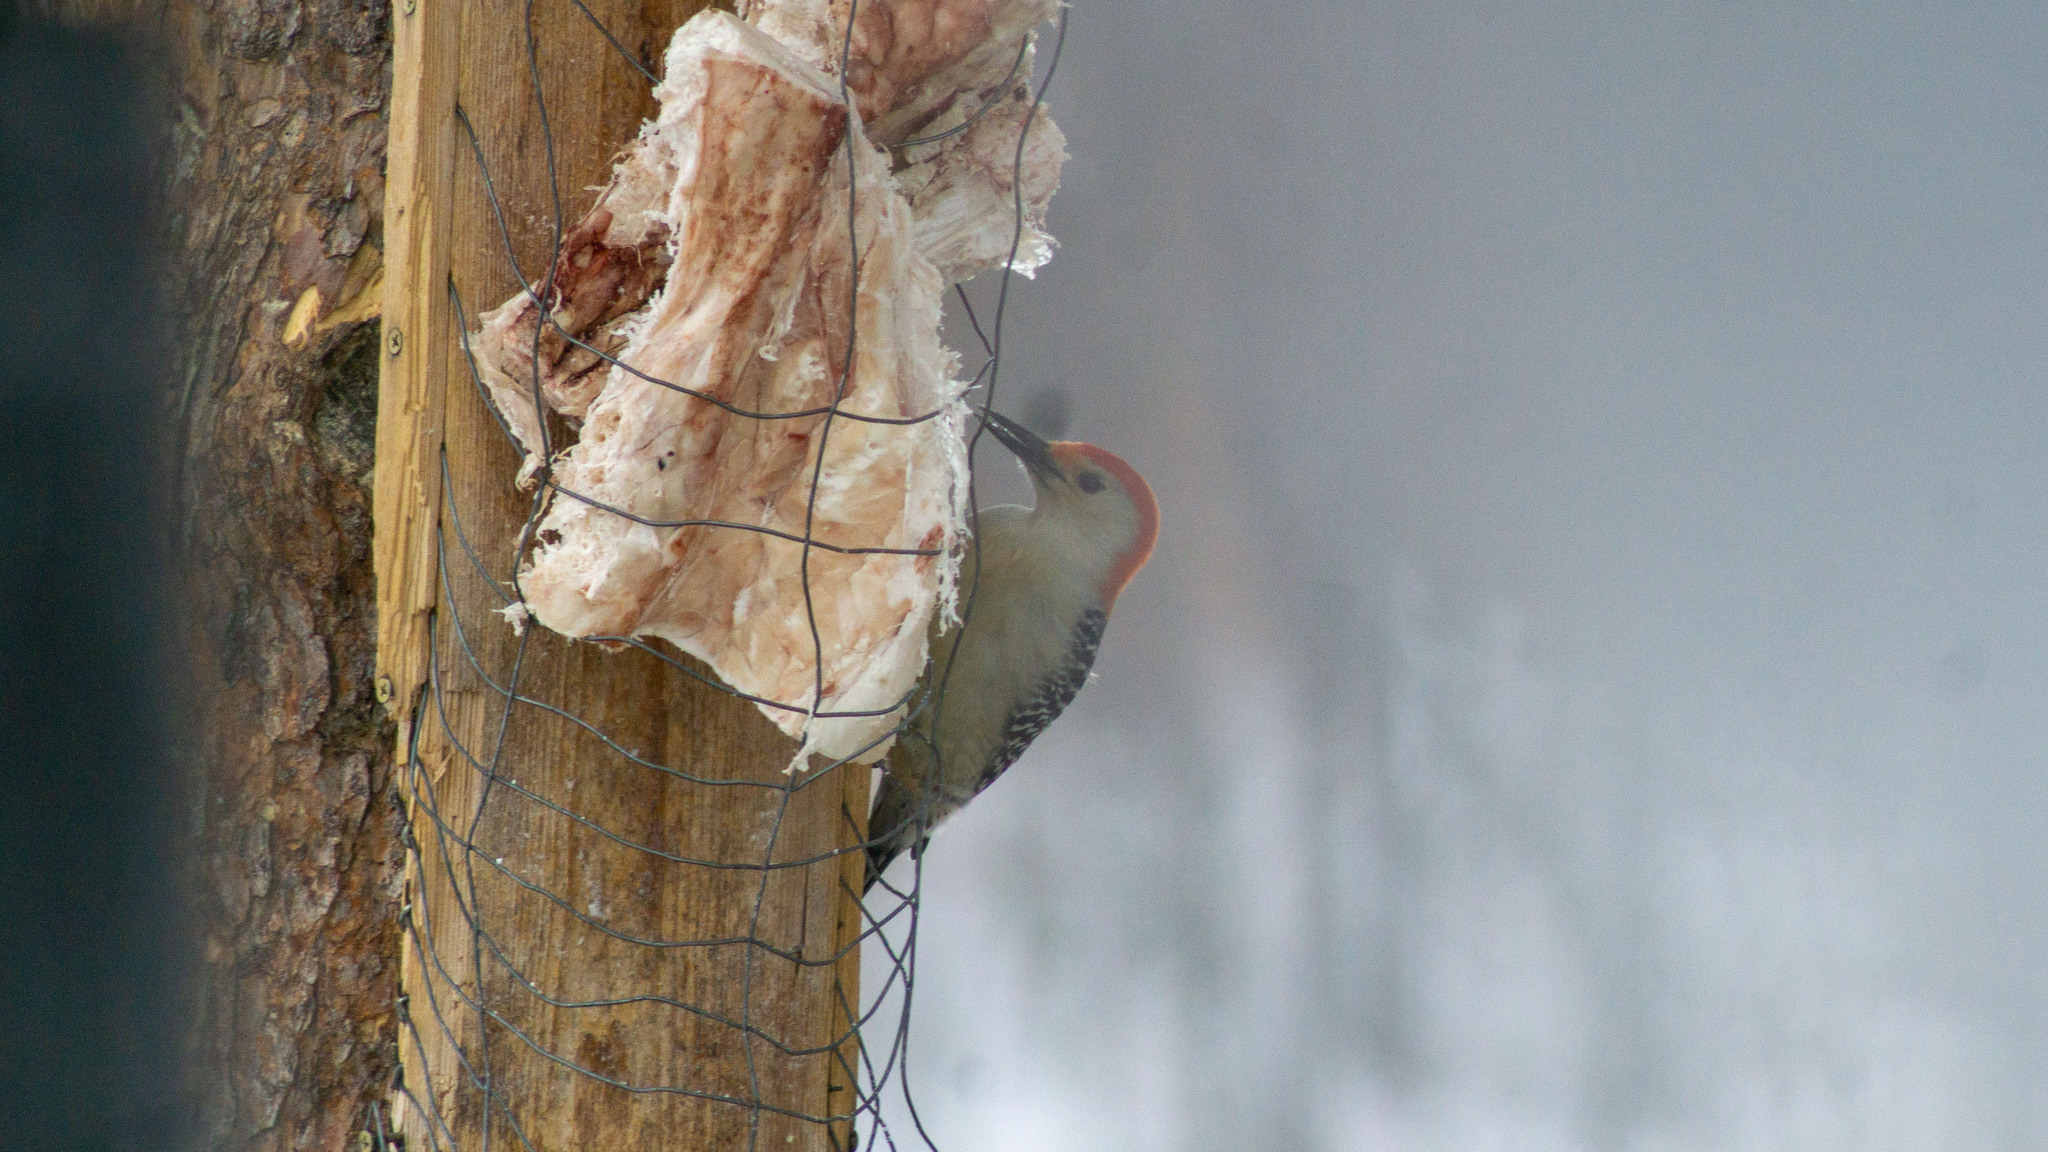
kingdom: Animalia
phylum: Chordata
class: Aves
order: Piciformes
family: Picidae
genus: Melanerpes
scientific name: Melanerpes carolinus
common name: Red-bellied woodpecker
